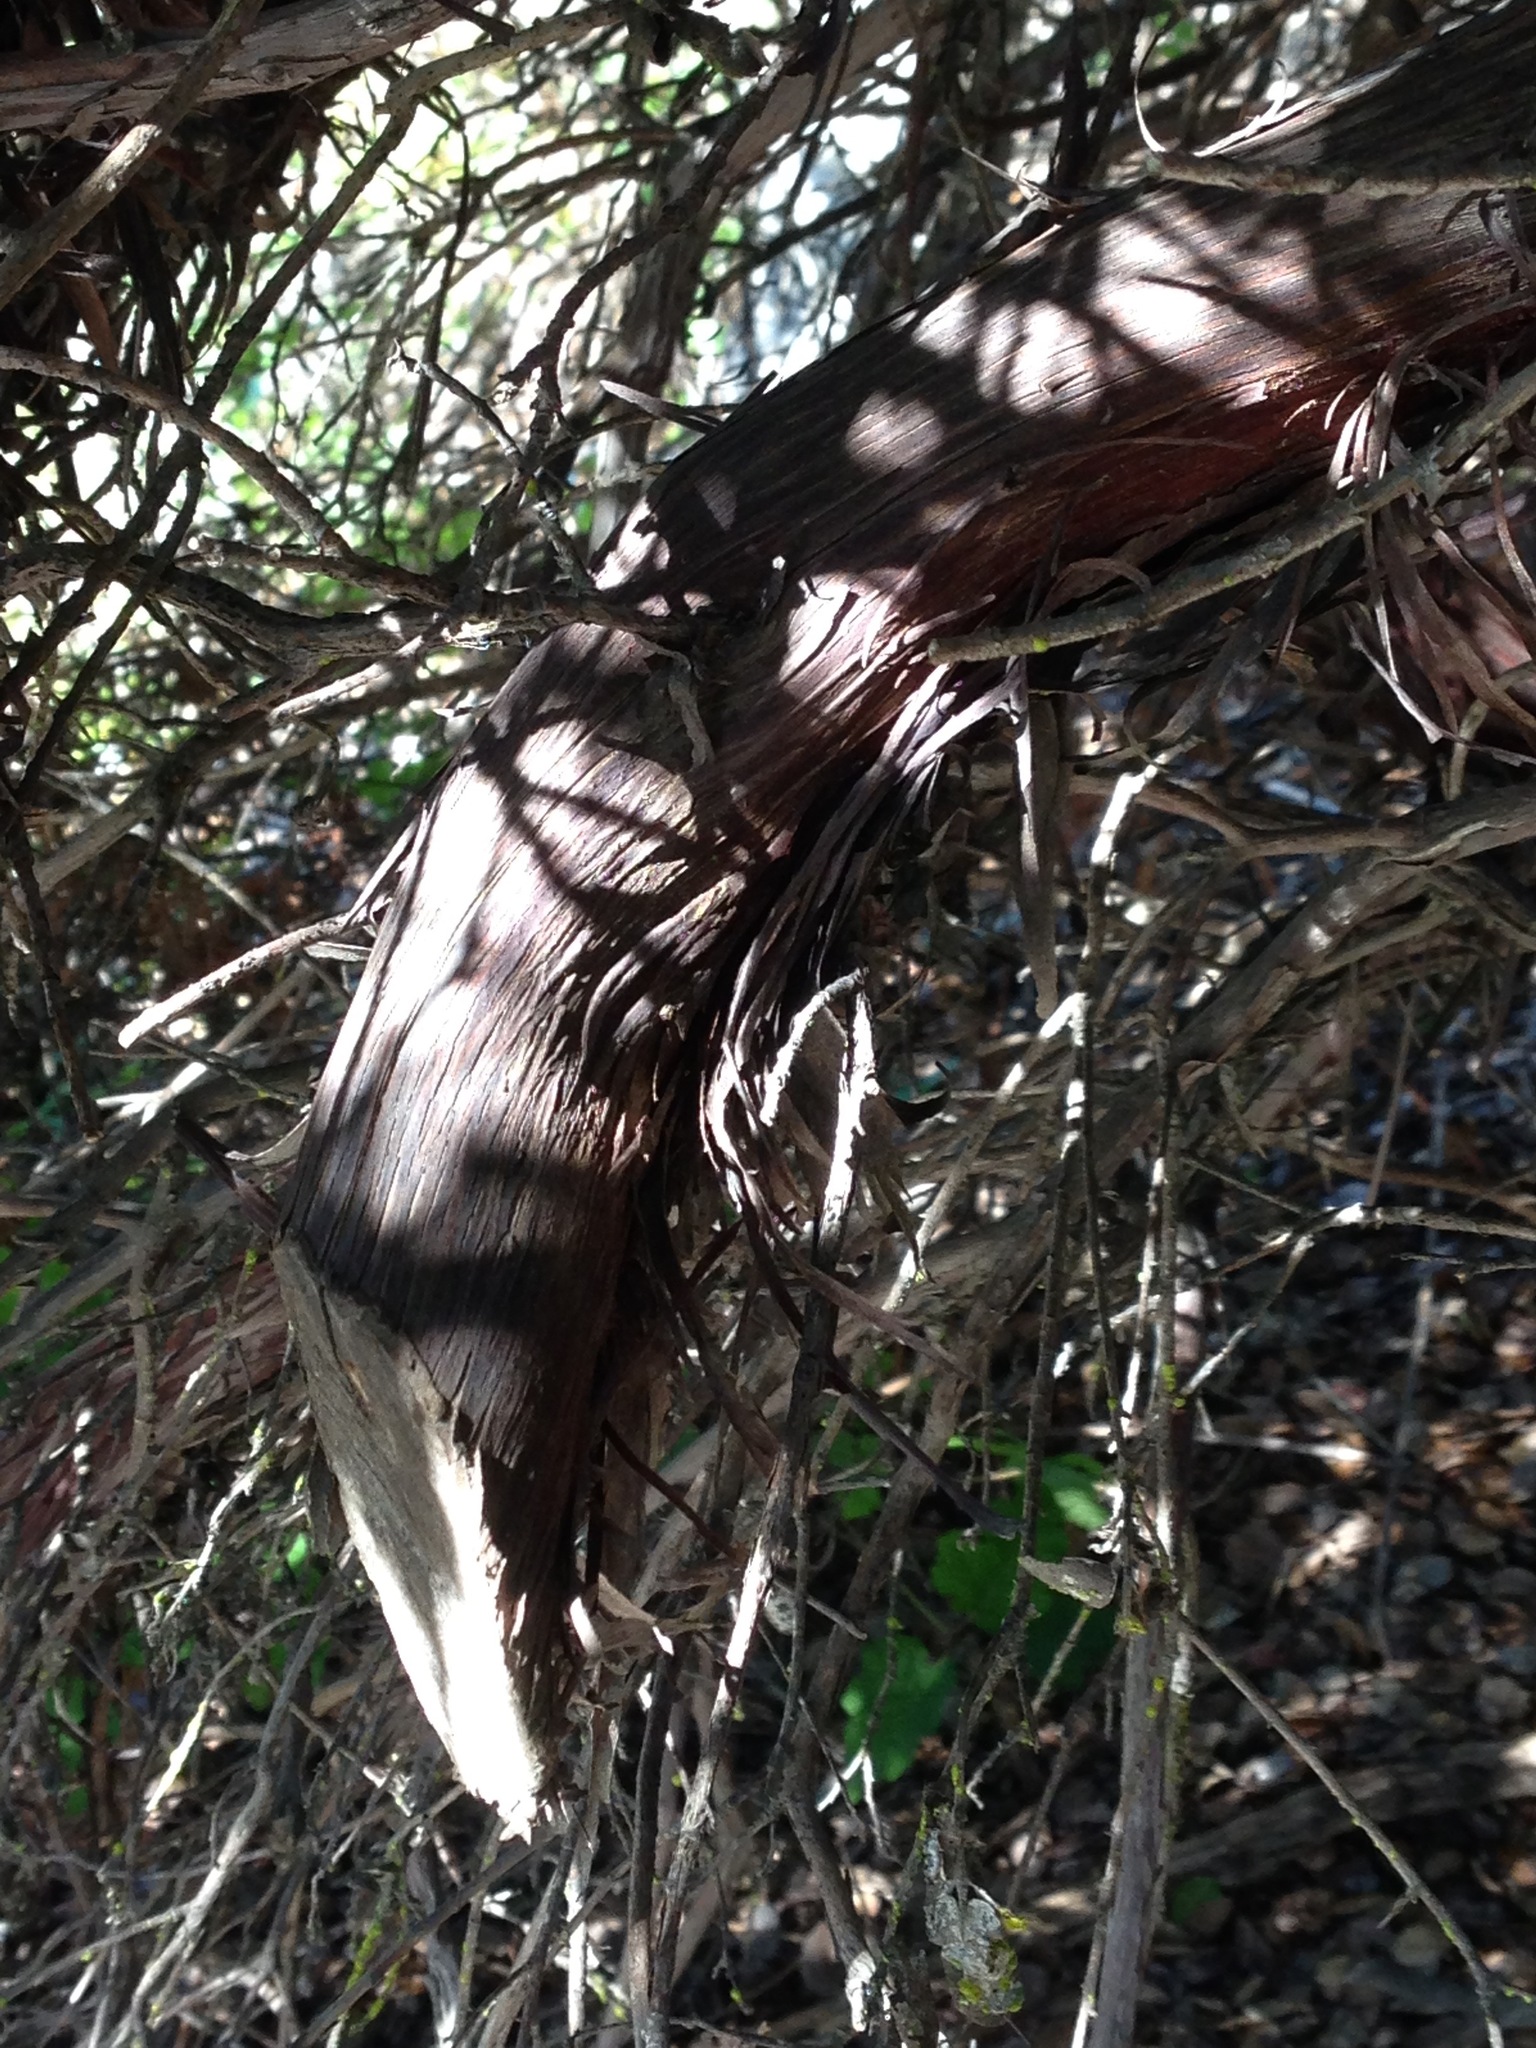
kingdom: Plantae
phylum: Tracheophyta
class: Magnoliopsida
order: Ericales
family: Ericaceae
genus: Arctostaphylos
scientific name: Arctostaphylos pajaroensis
